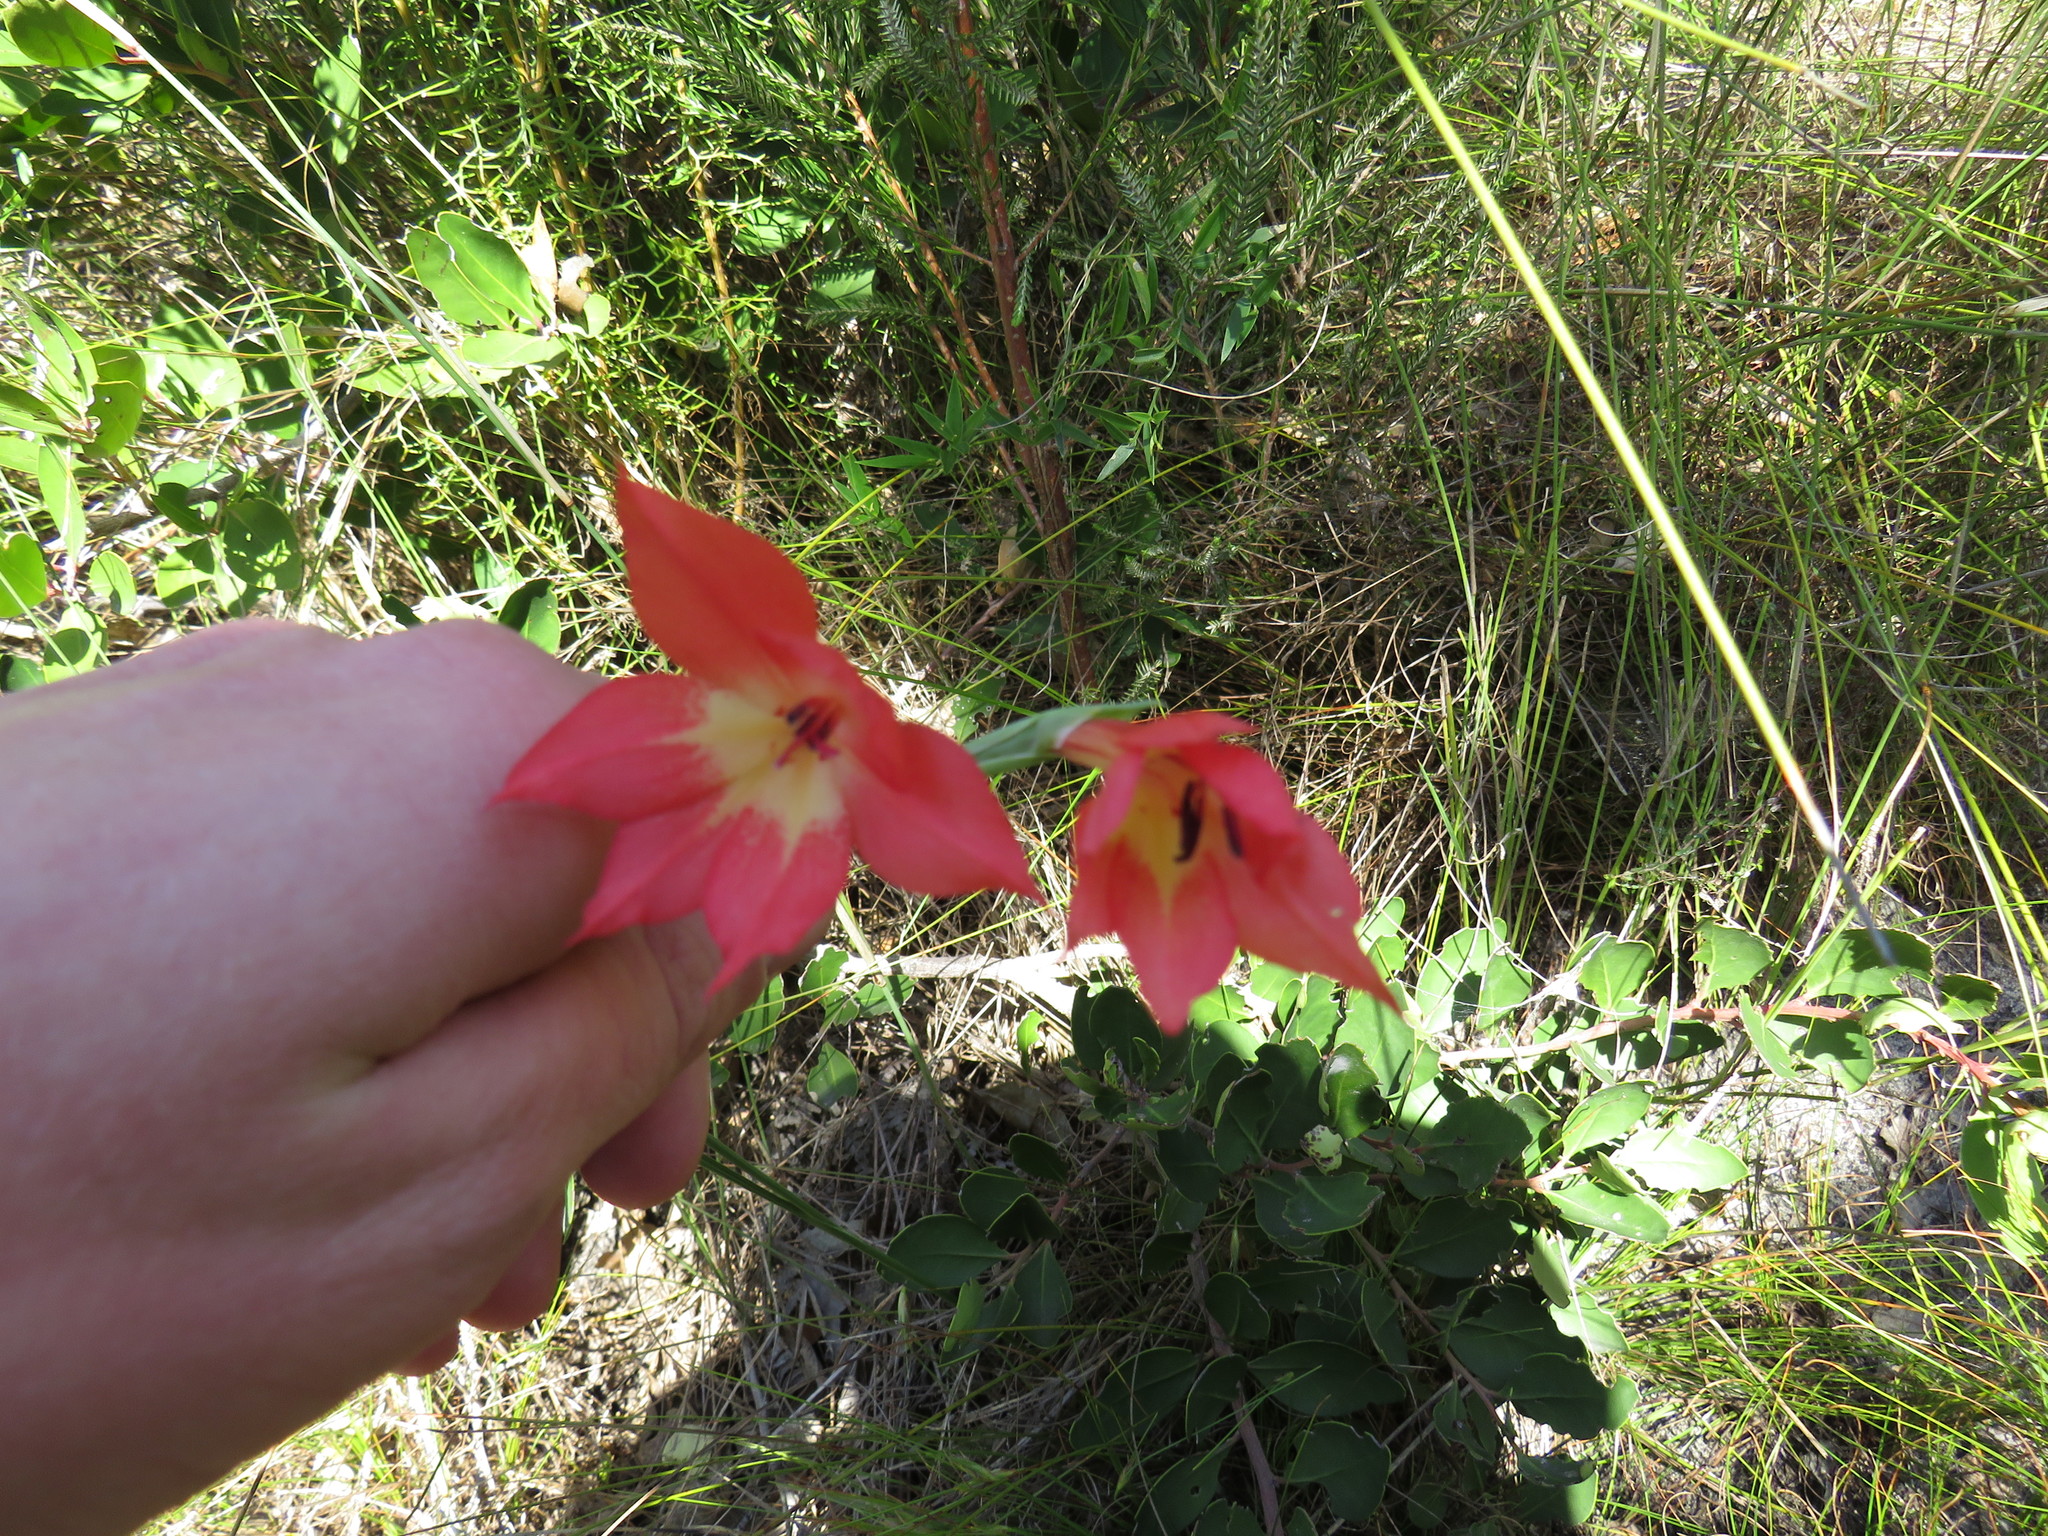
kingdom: Plantae
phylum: Tracheophyta
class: Liliopsida
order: Asparagales
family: Iridaceae
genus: Gladiolus
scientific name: Gladiolus priorii
